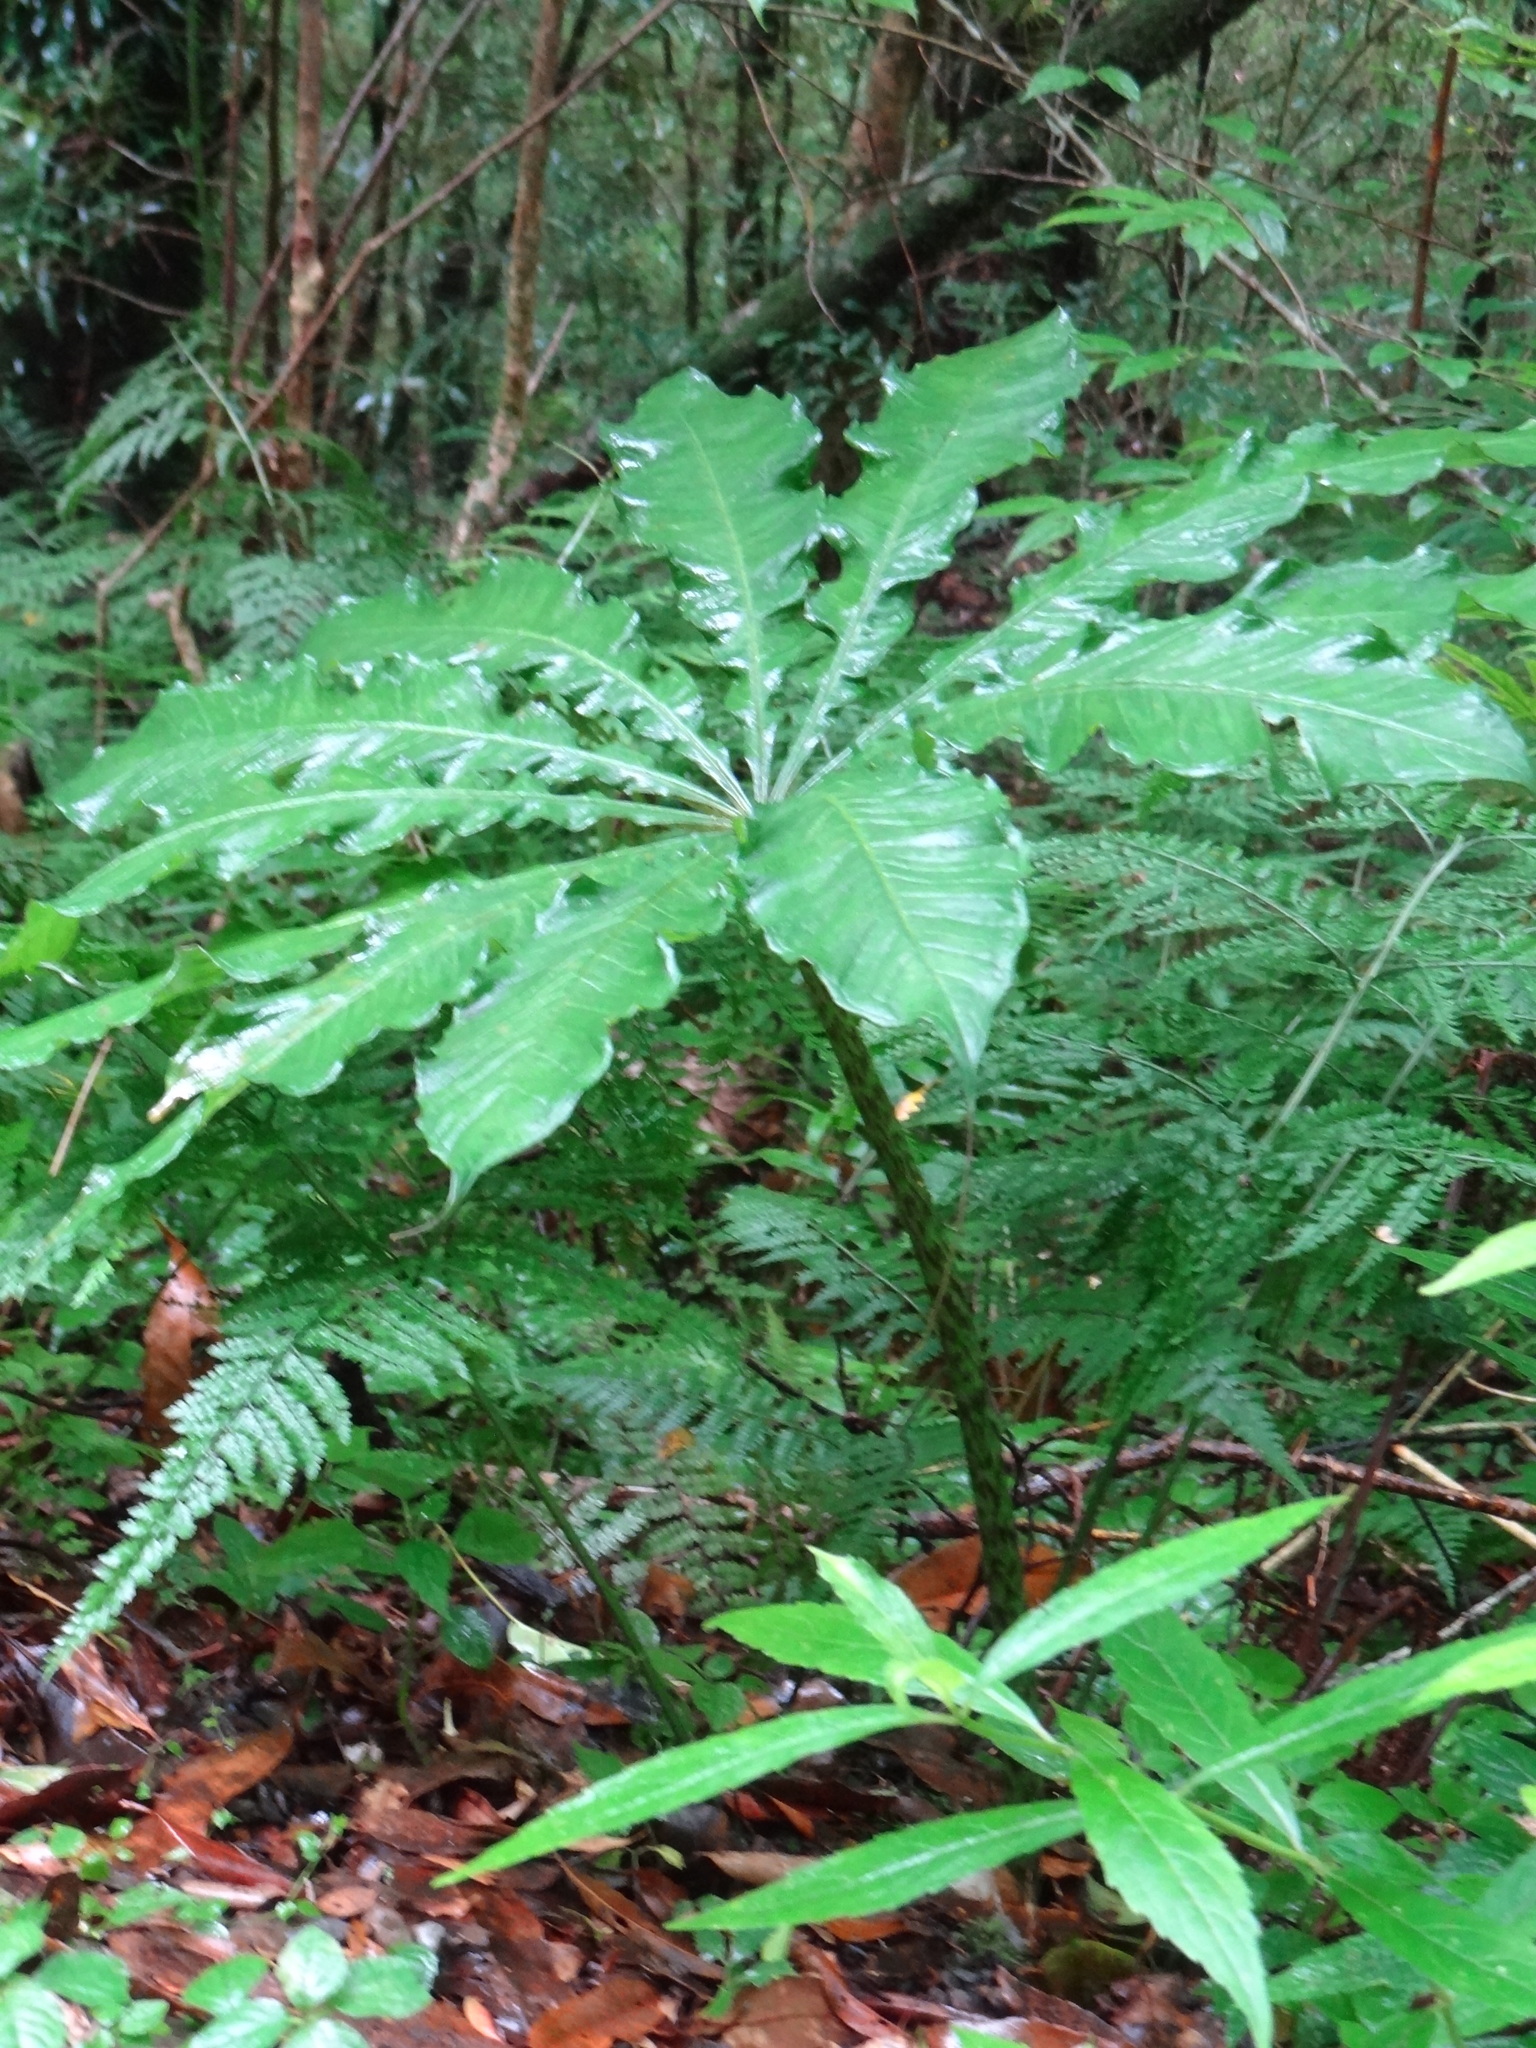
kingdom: Plantae
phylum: Tracheophyta
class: Liliopsida
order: Alismatales
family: Araceae
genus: Arisaema
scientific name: Arisaema taiwanense
